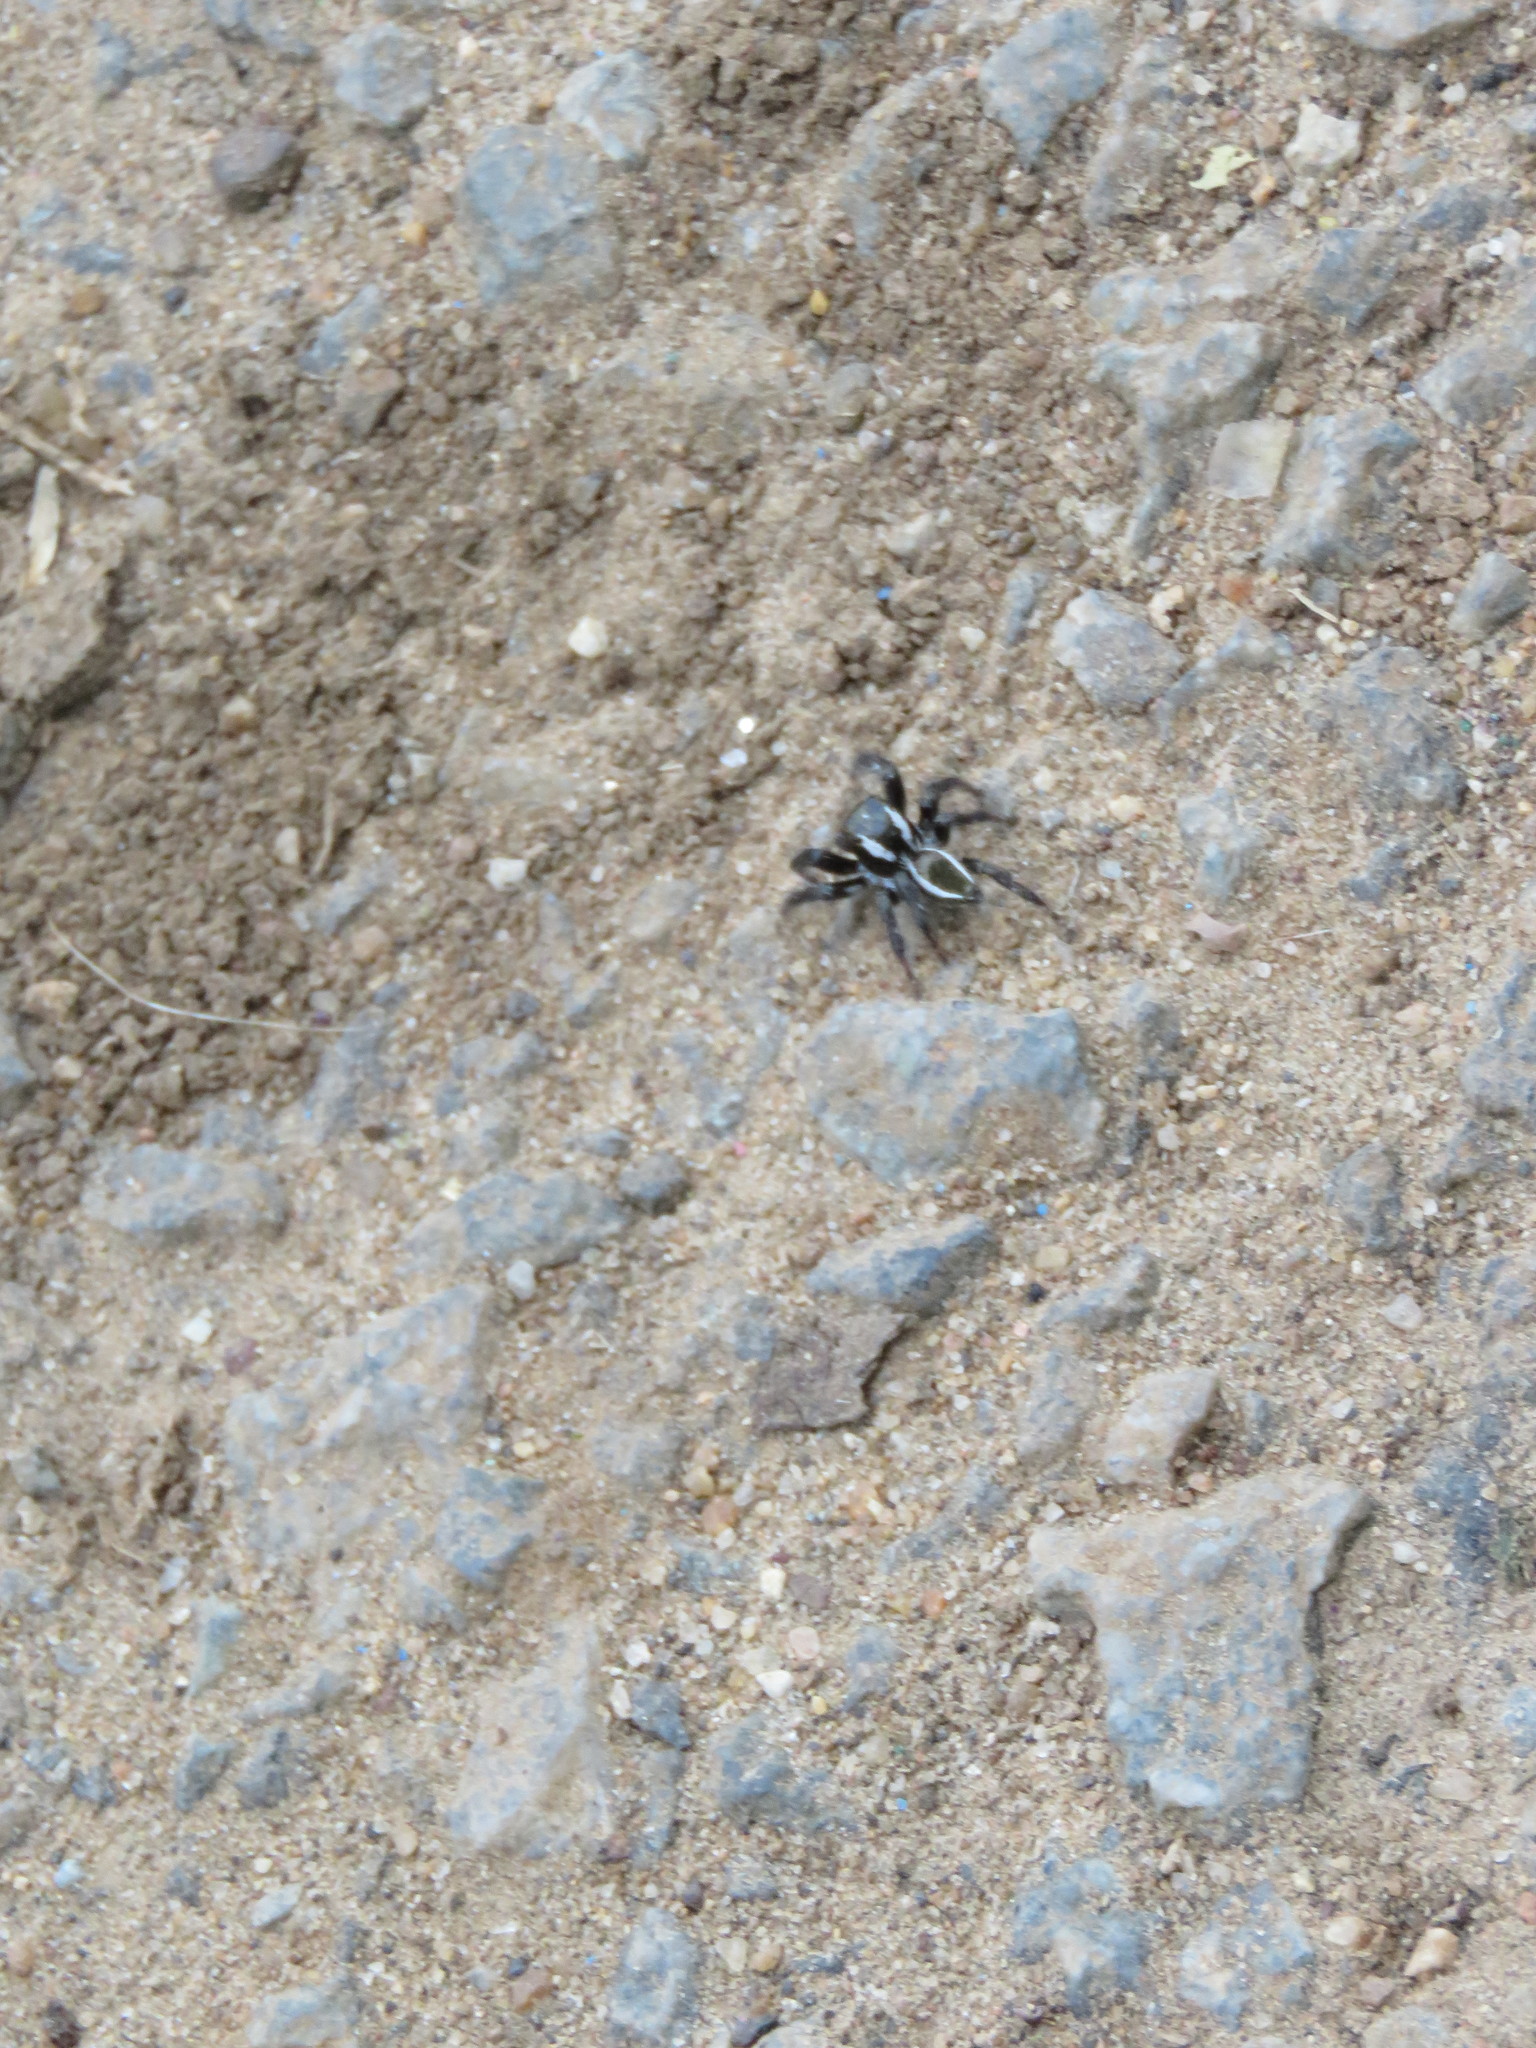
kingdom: Animalia
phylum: Arthropoda
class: Arachnida
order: Araneae
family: Salticidae
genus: Carrhotus
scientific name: Carrhotus viduus
